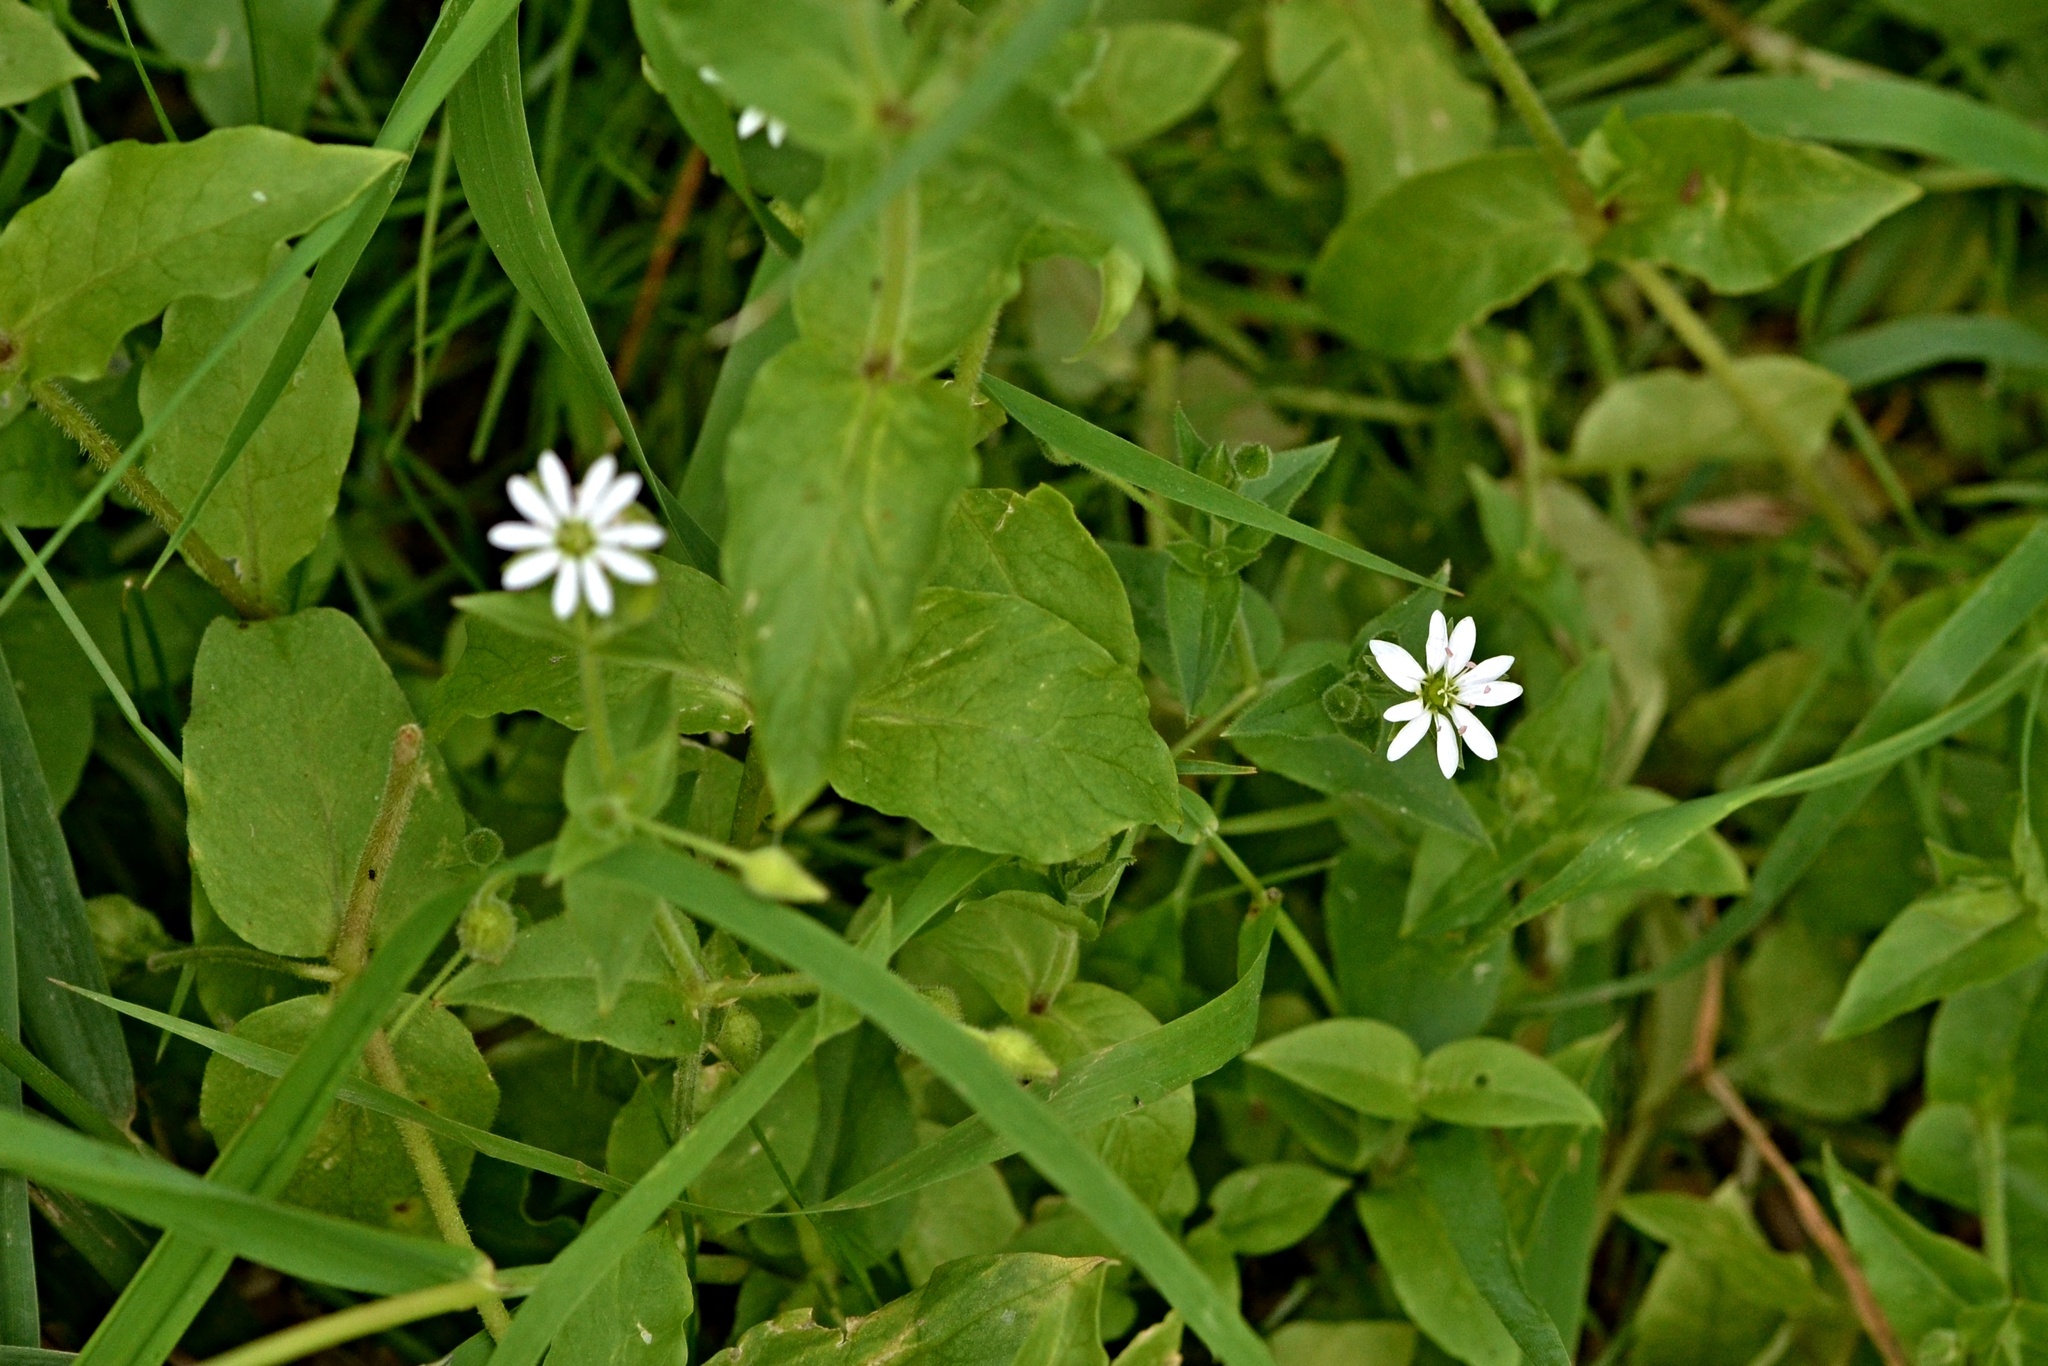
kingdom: Plantae
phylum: Tracheophyta
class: Magnoliopsida
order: Caryophyllales
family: Caryophyllaceae
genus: Stellaria
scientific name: Stellaria aquatica
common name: Water chickweed
